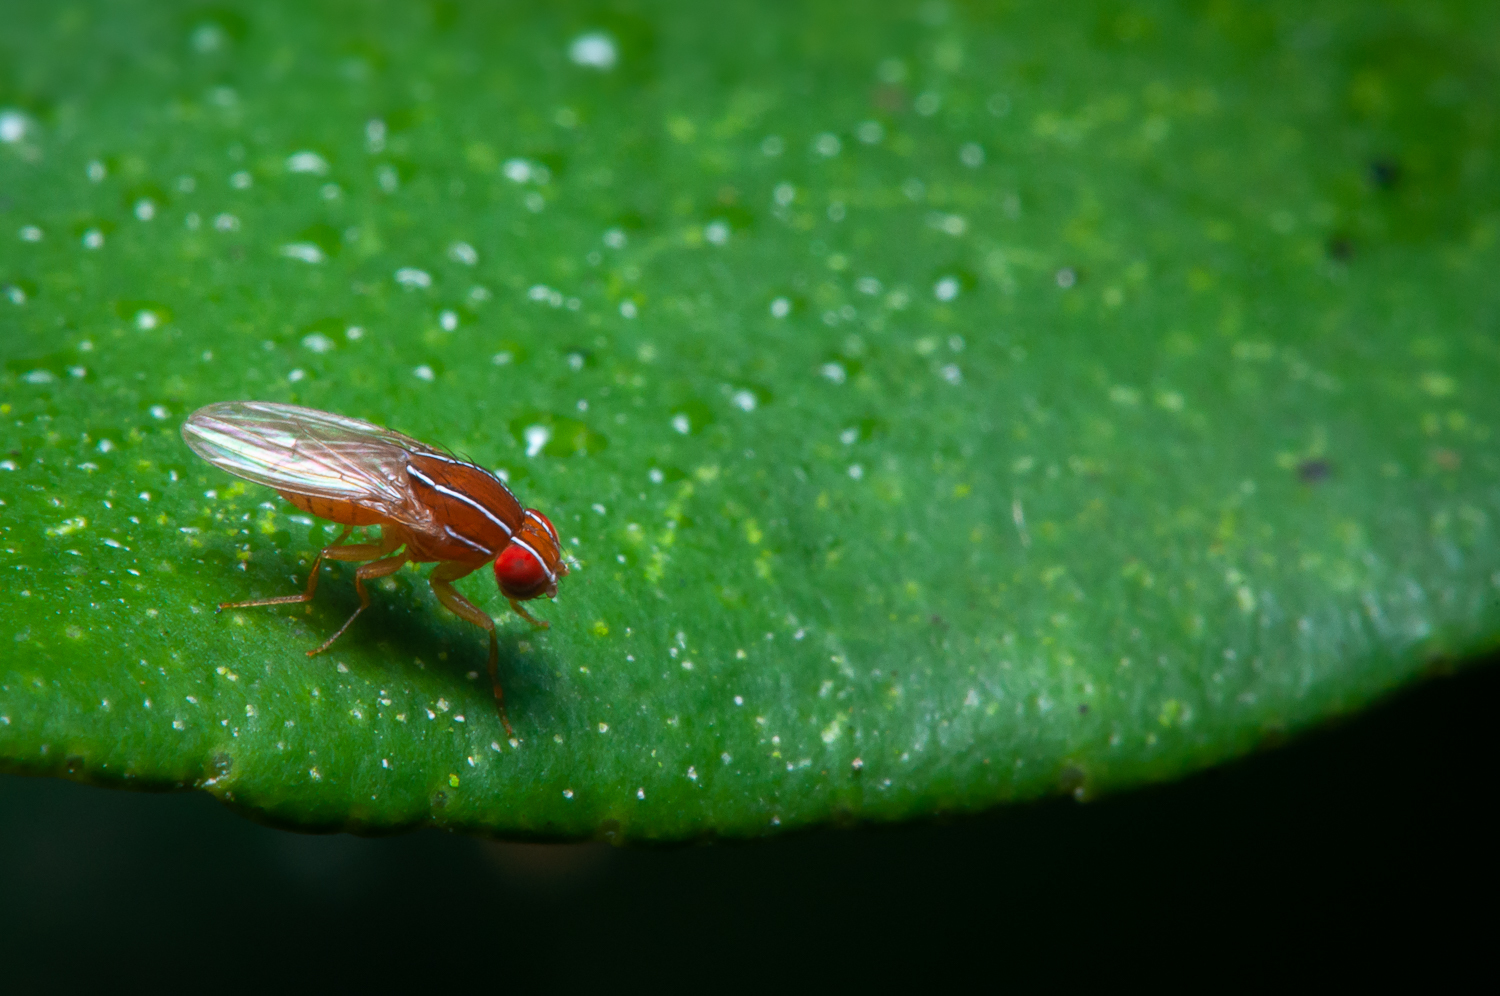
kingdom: Animalia
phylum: Arthropoda
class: Insecta
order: Diptera
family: Drosophilidae
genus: Zaprionus
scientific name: Zaprionus indianus
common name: African fig fly
